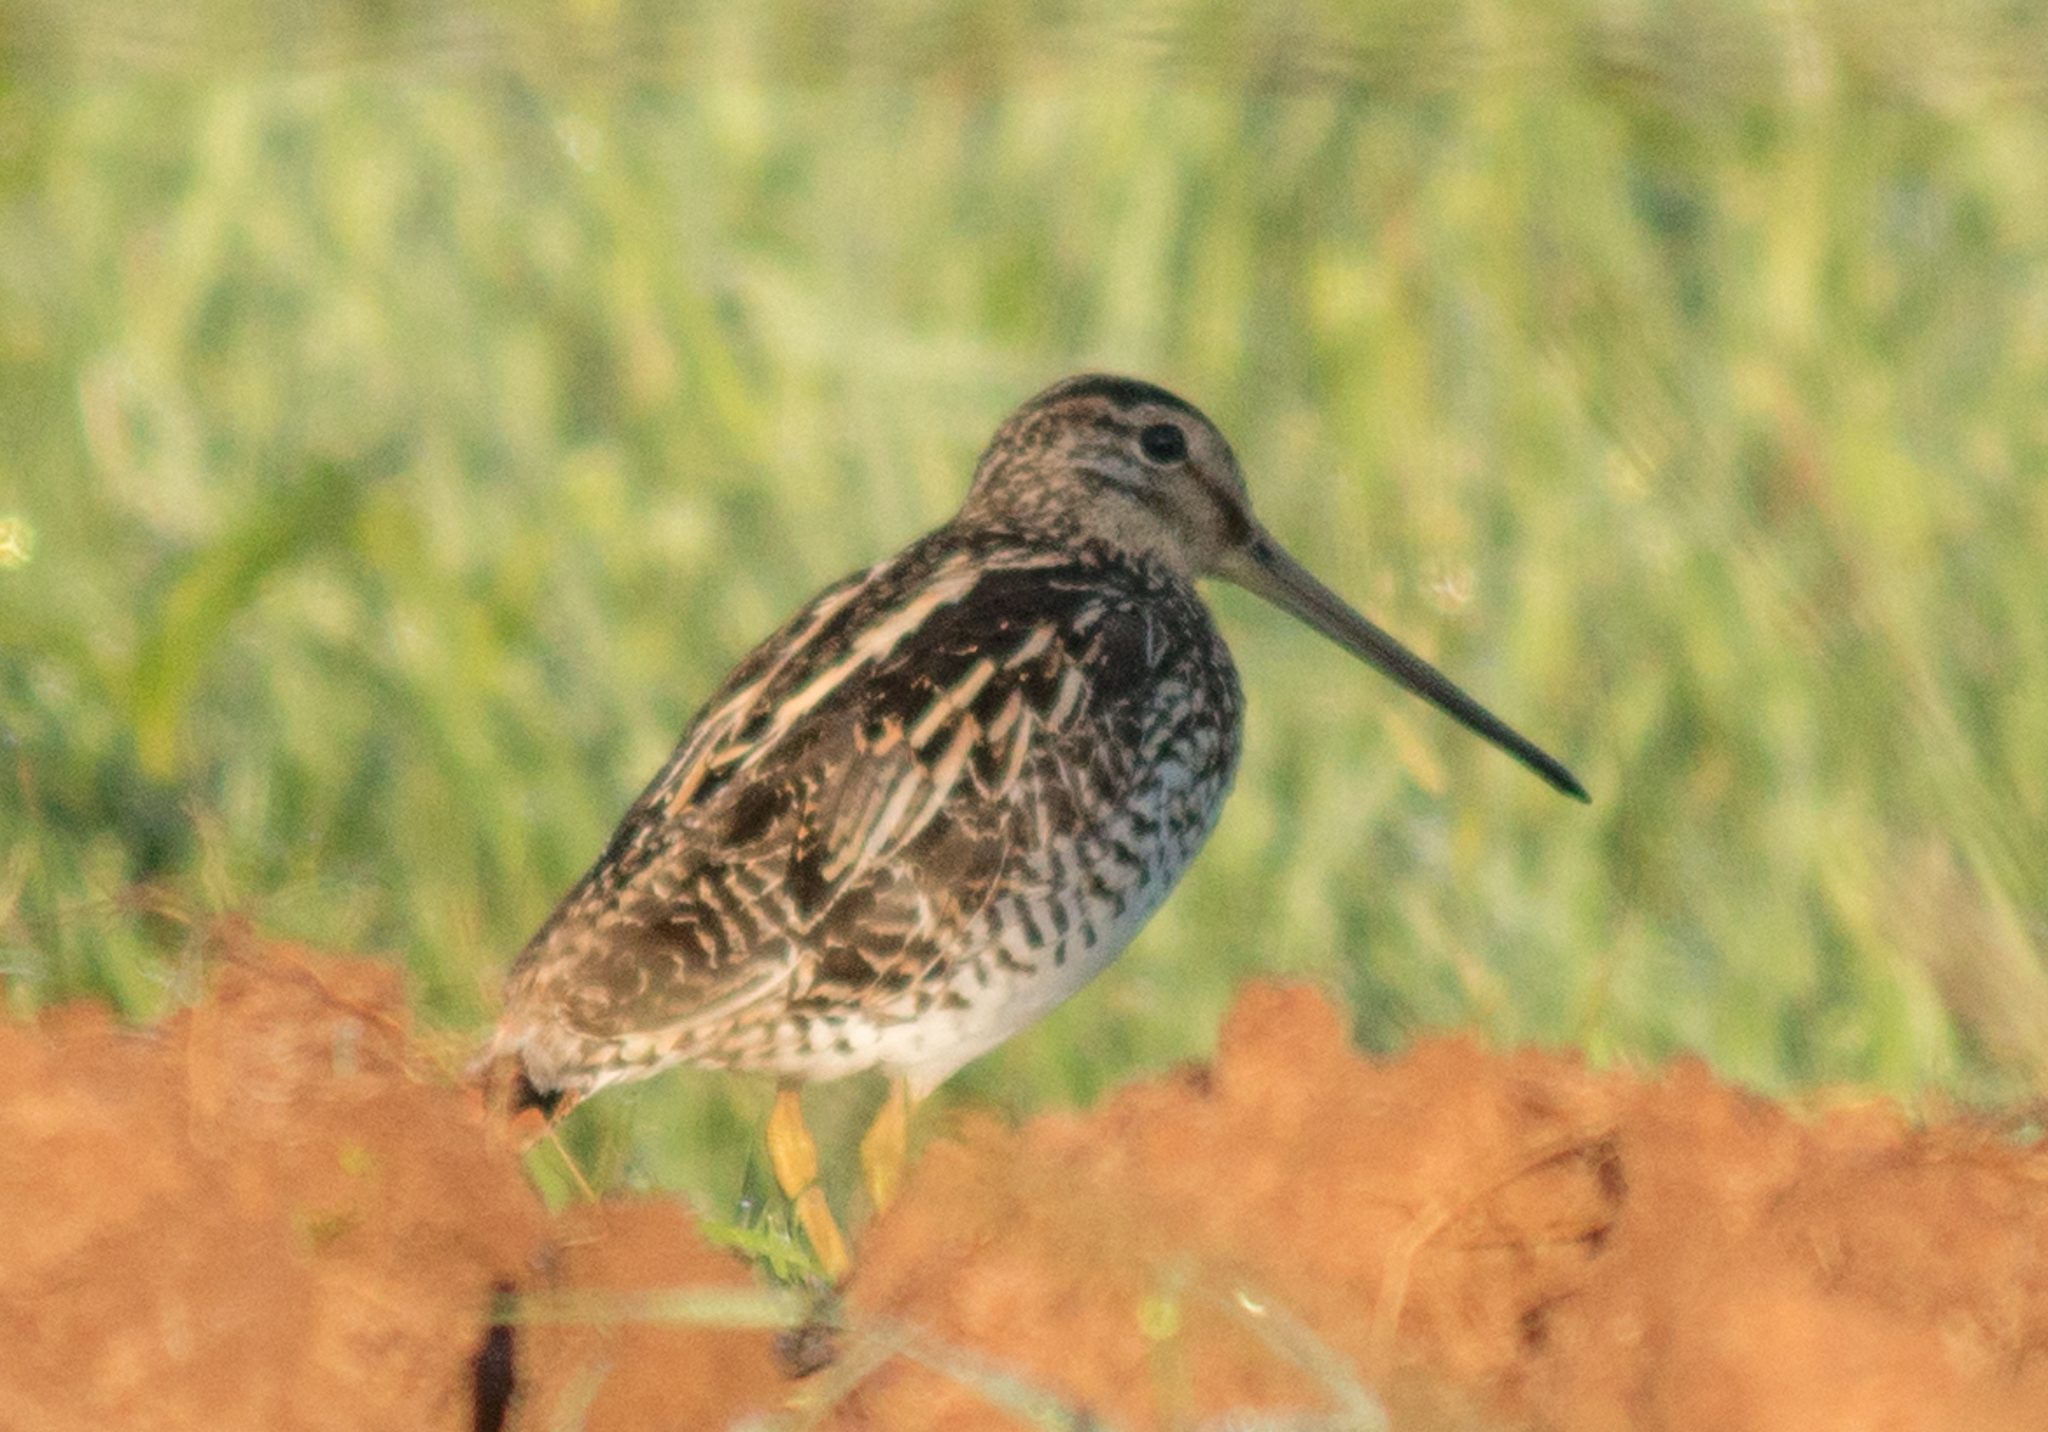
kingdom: Animalia
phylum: Chordata
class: Aves
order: Charadriiformes
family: Scolopacidae
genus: Gallinago
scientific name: Gallinago paraguaiae
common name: South american snipe
